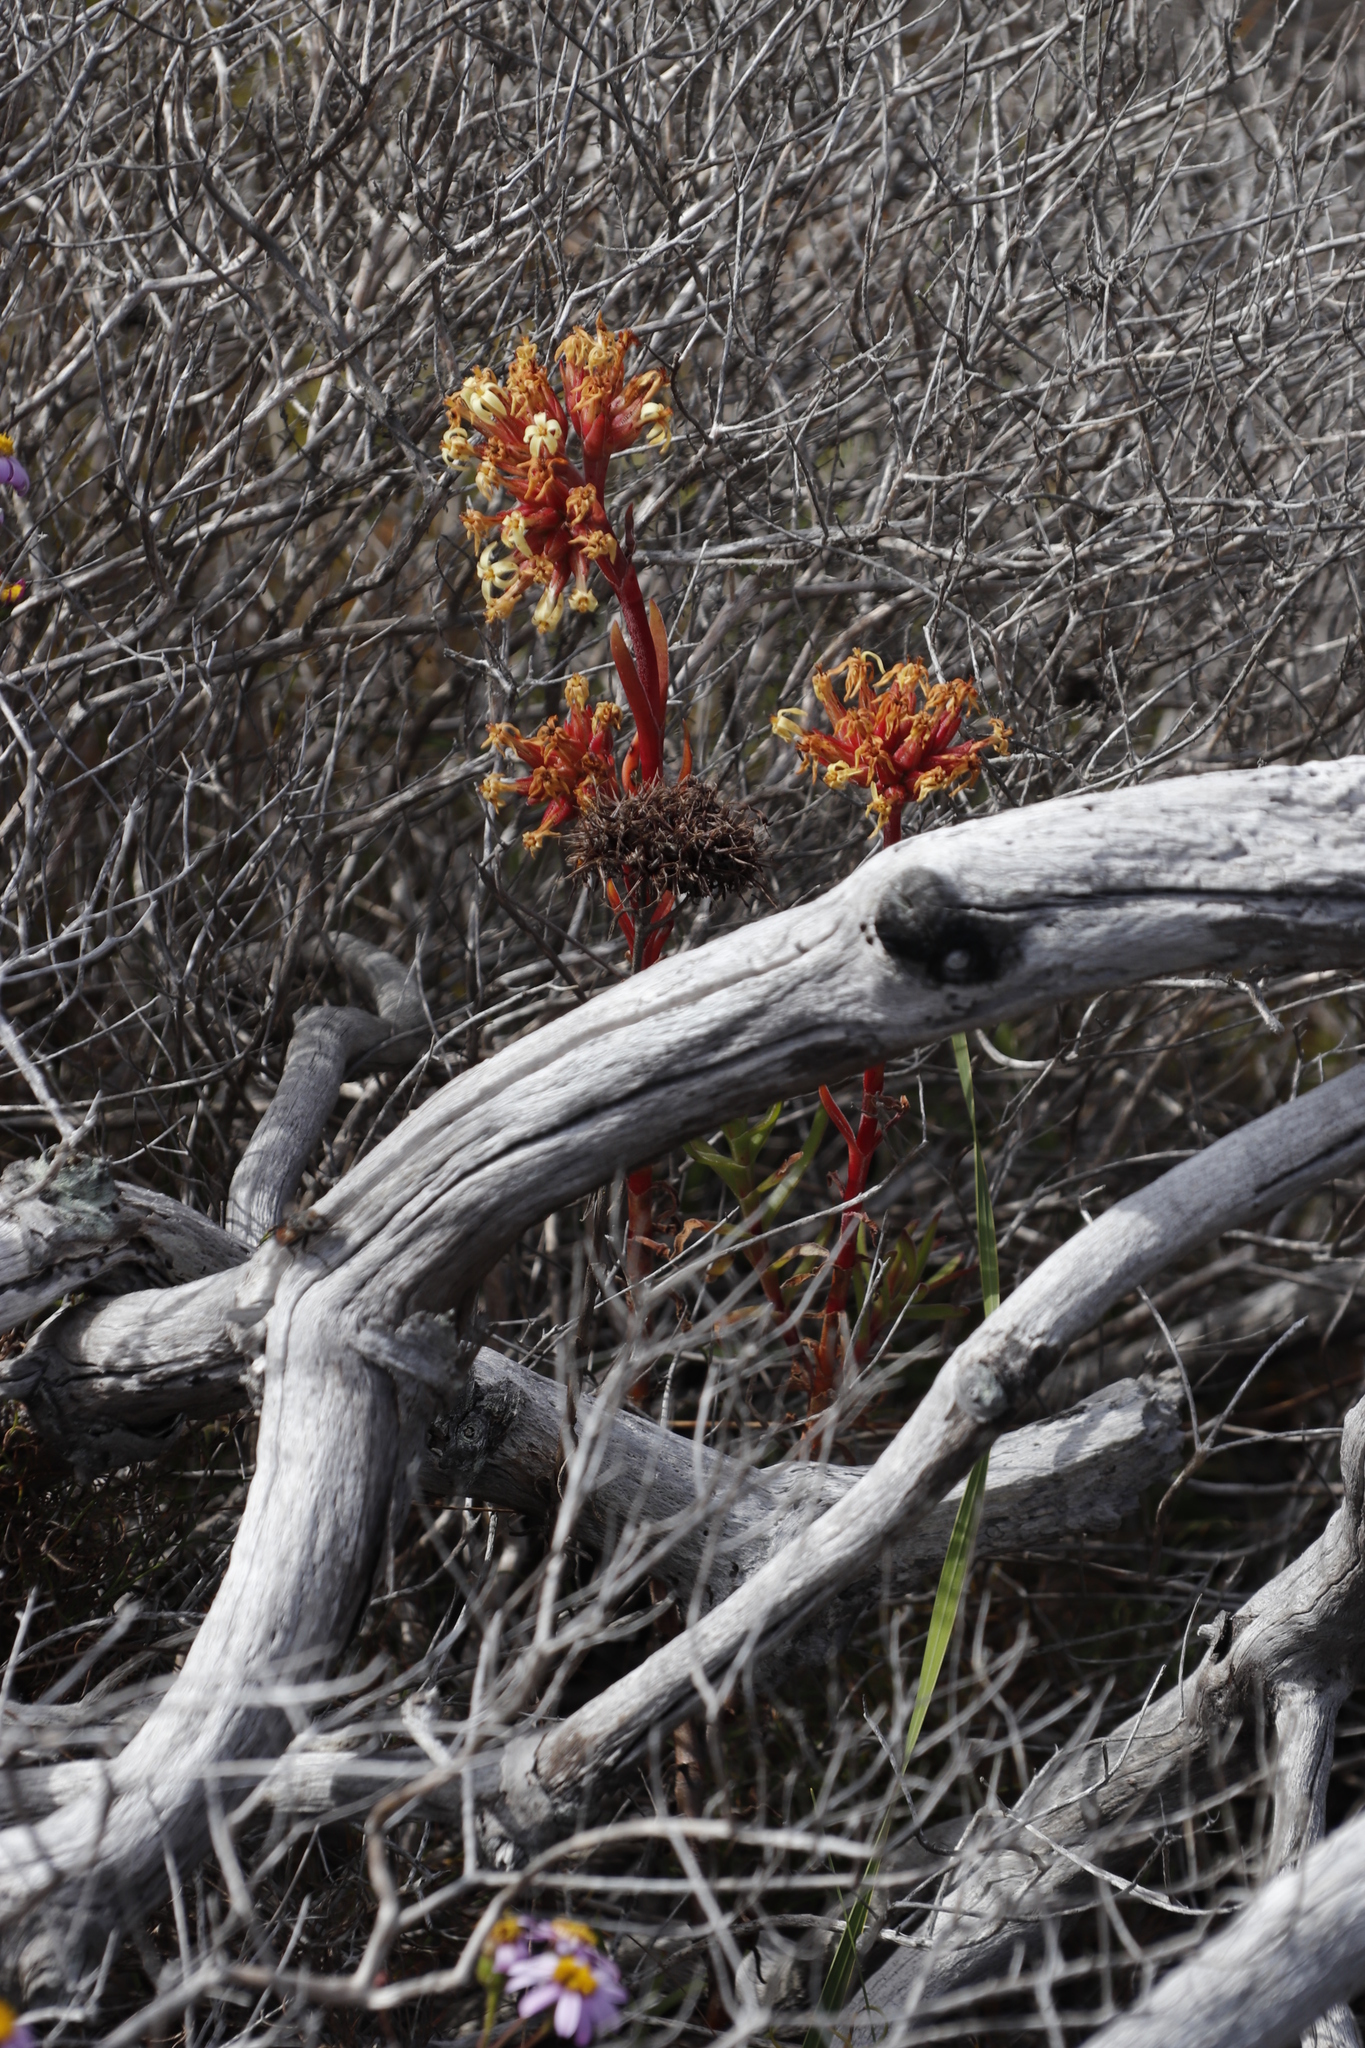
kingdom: Plantae
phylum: Tracheophyta
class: Magnoliopsida
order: Saxifragales
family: Crassulaceae
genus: Crassula
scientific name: Crassula fascicularis
